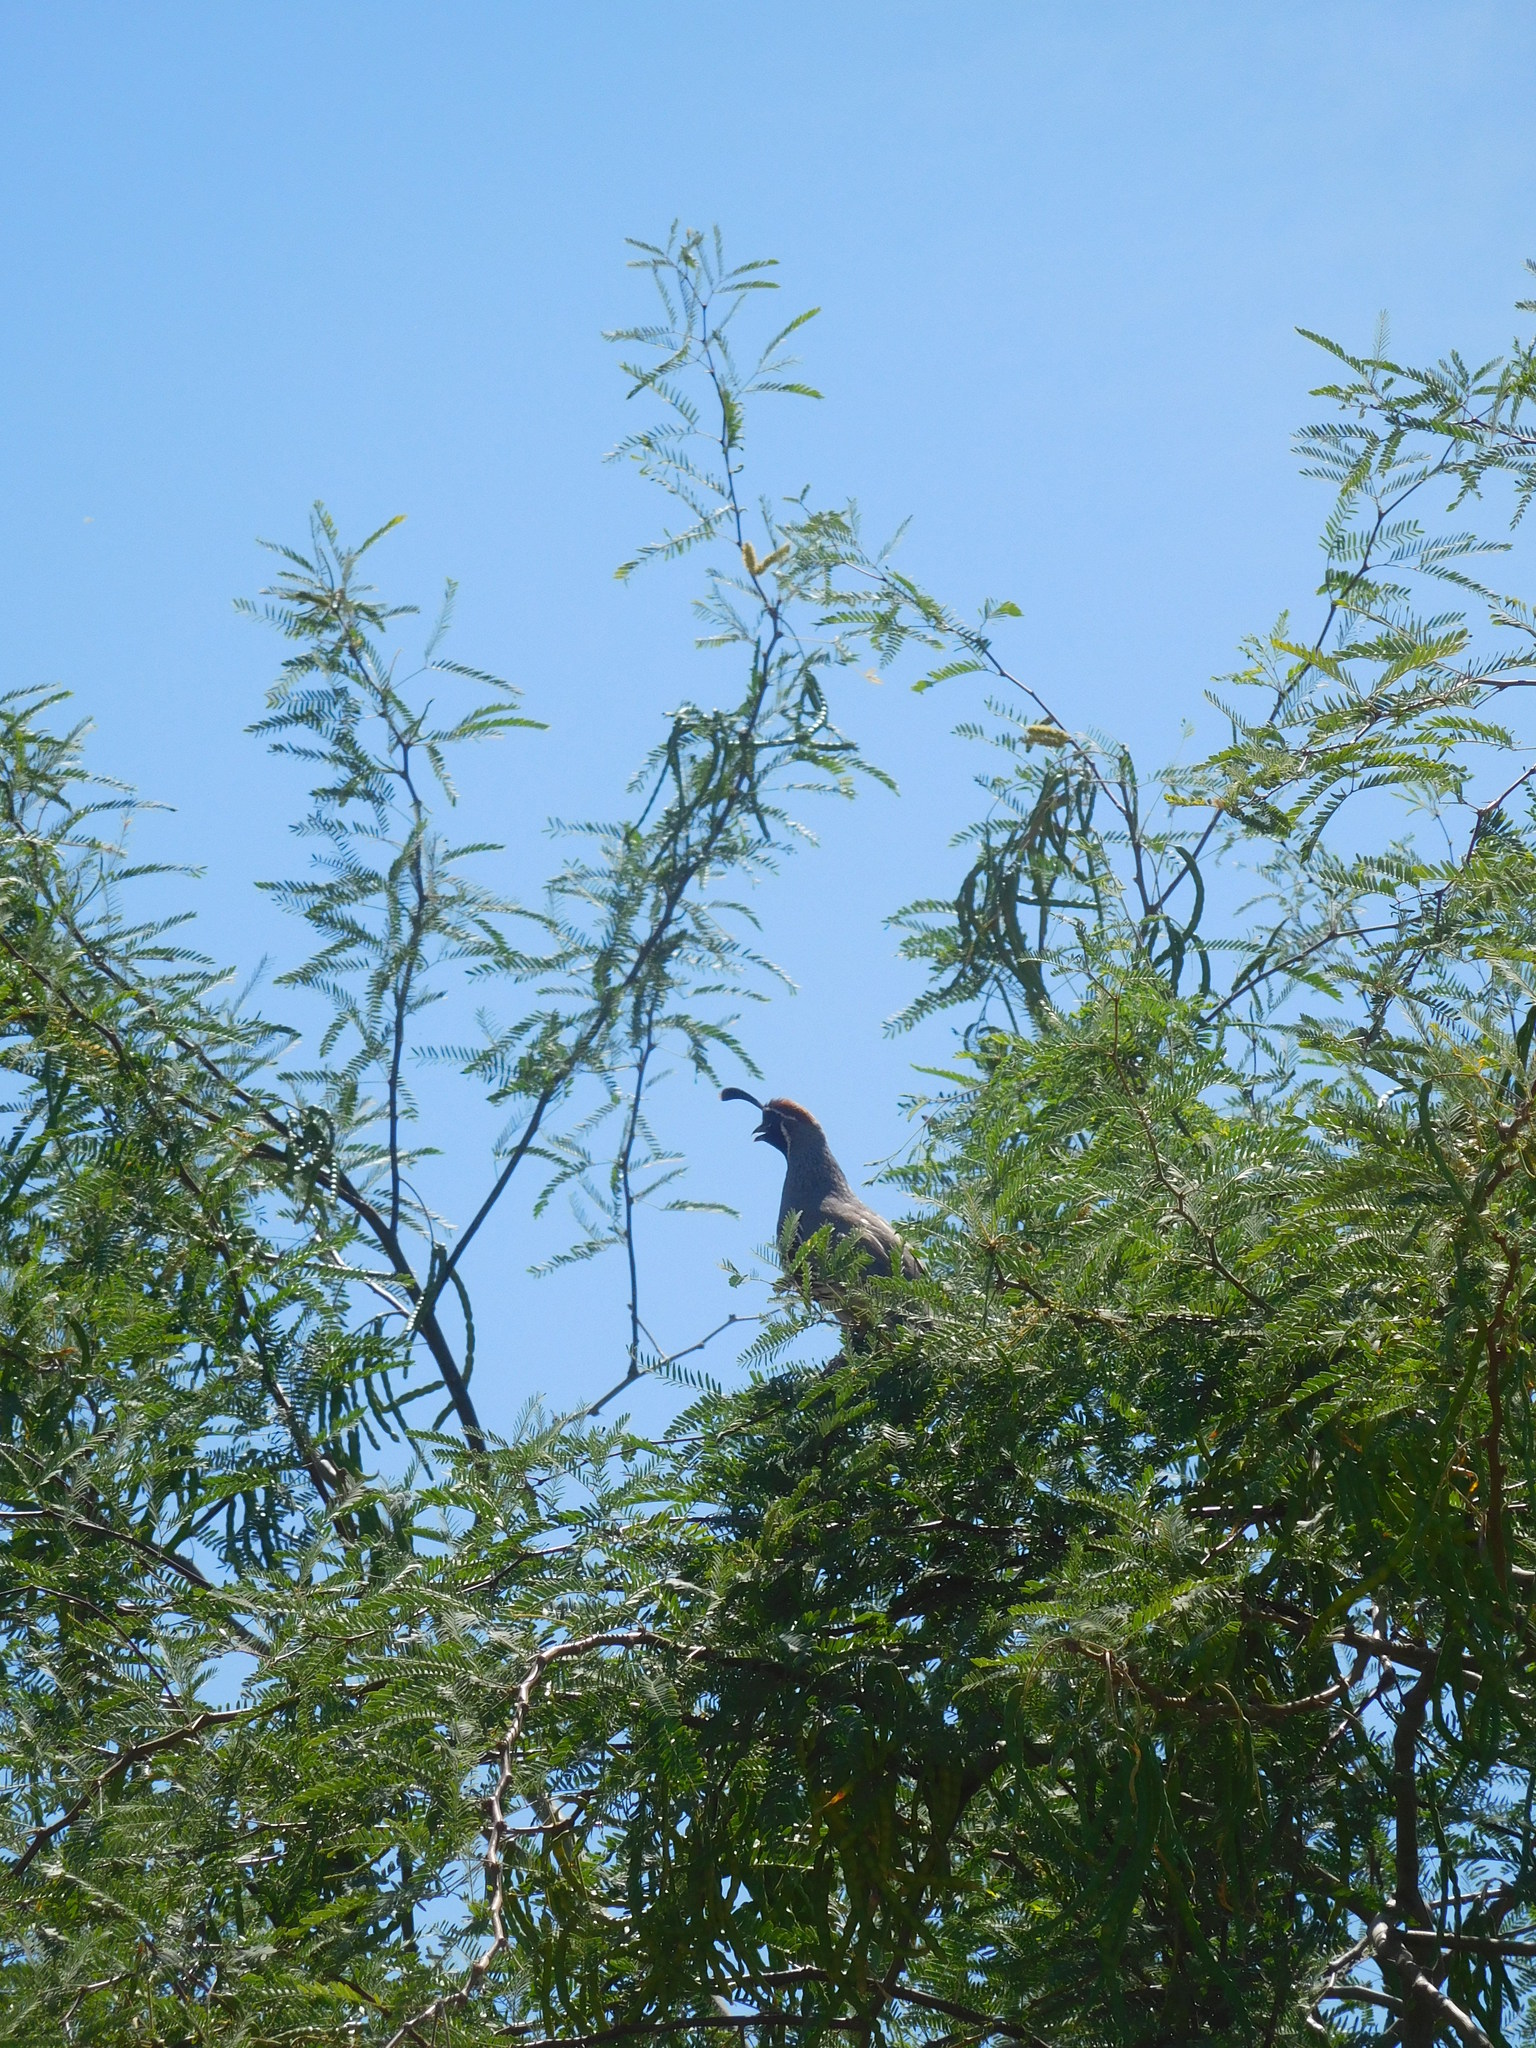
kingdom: Animalia
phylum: Chordata
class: Aves
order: Galliformes
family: Odontophoridae
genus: Callipepla
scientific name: Callipepla gambelii
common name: Gambel's quail
